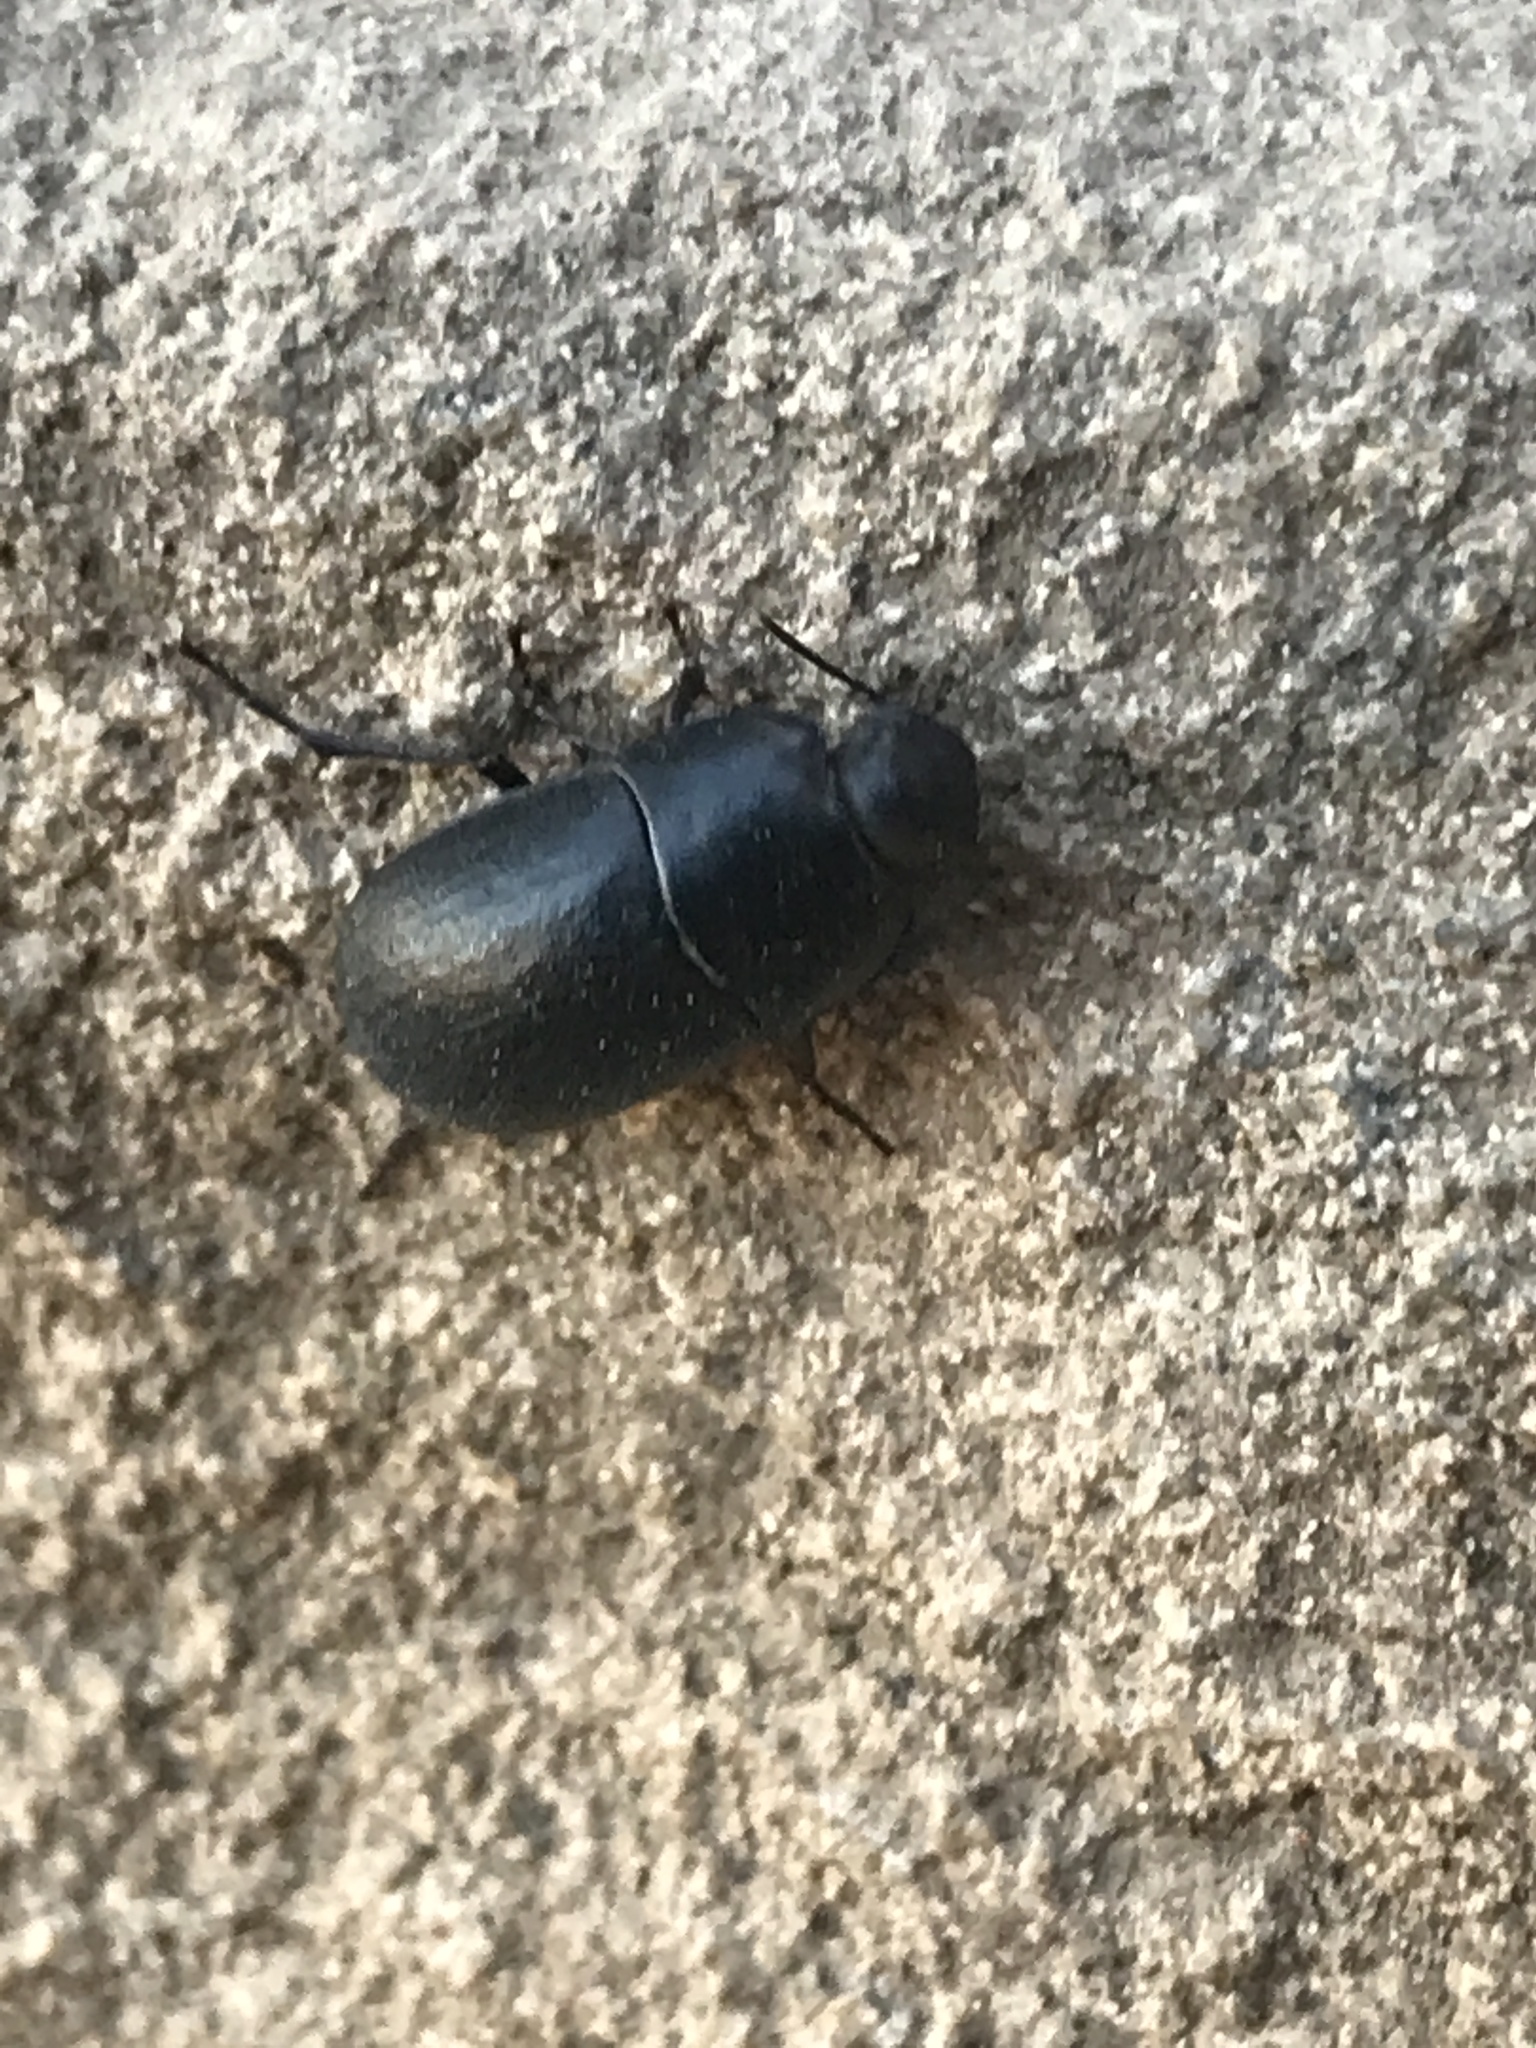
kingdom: Animalia
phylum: Arthropoda
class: Insecta
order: Coleoptera
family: Tenebrionidae
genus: Coniontis
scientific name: Coniontis
